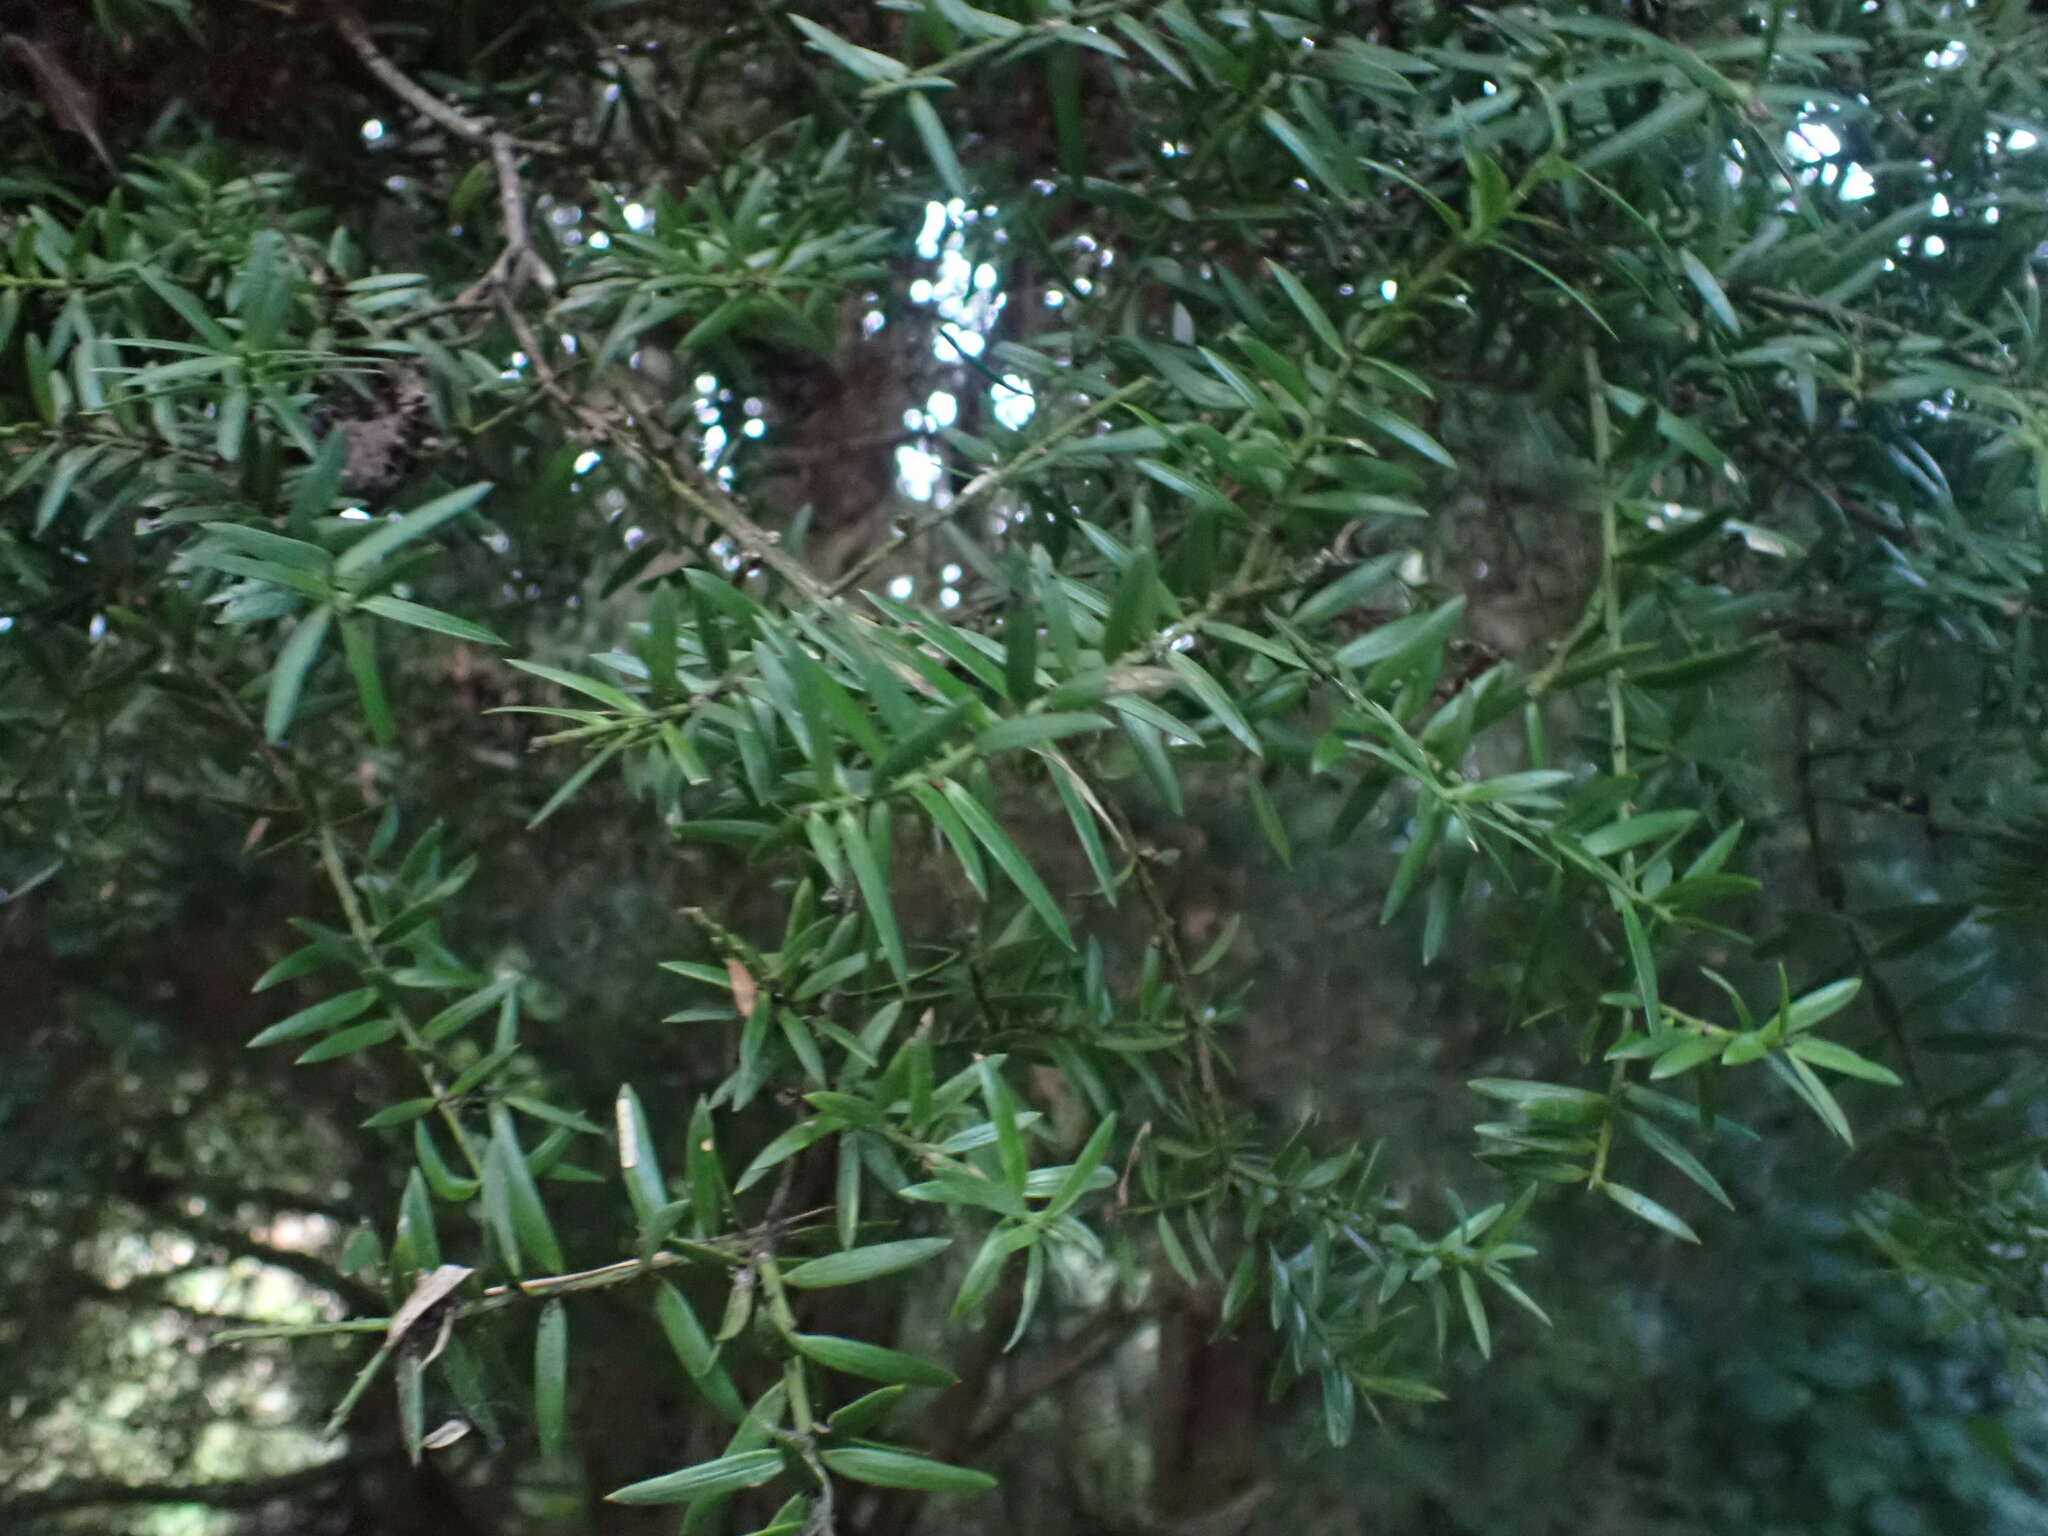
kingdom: Plantae
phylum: Tracheophyta
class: Pinopsida
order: Pinales
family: Podocarpaceae
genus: Podocarpus
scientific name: Podocarpus totara
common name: Totara
